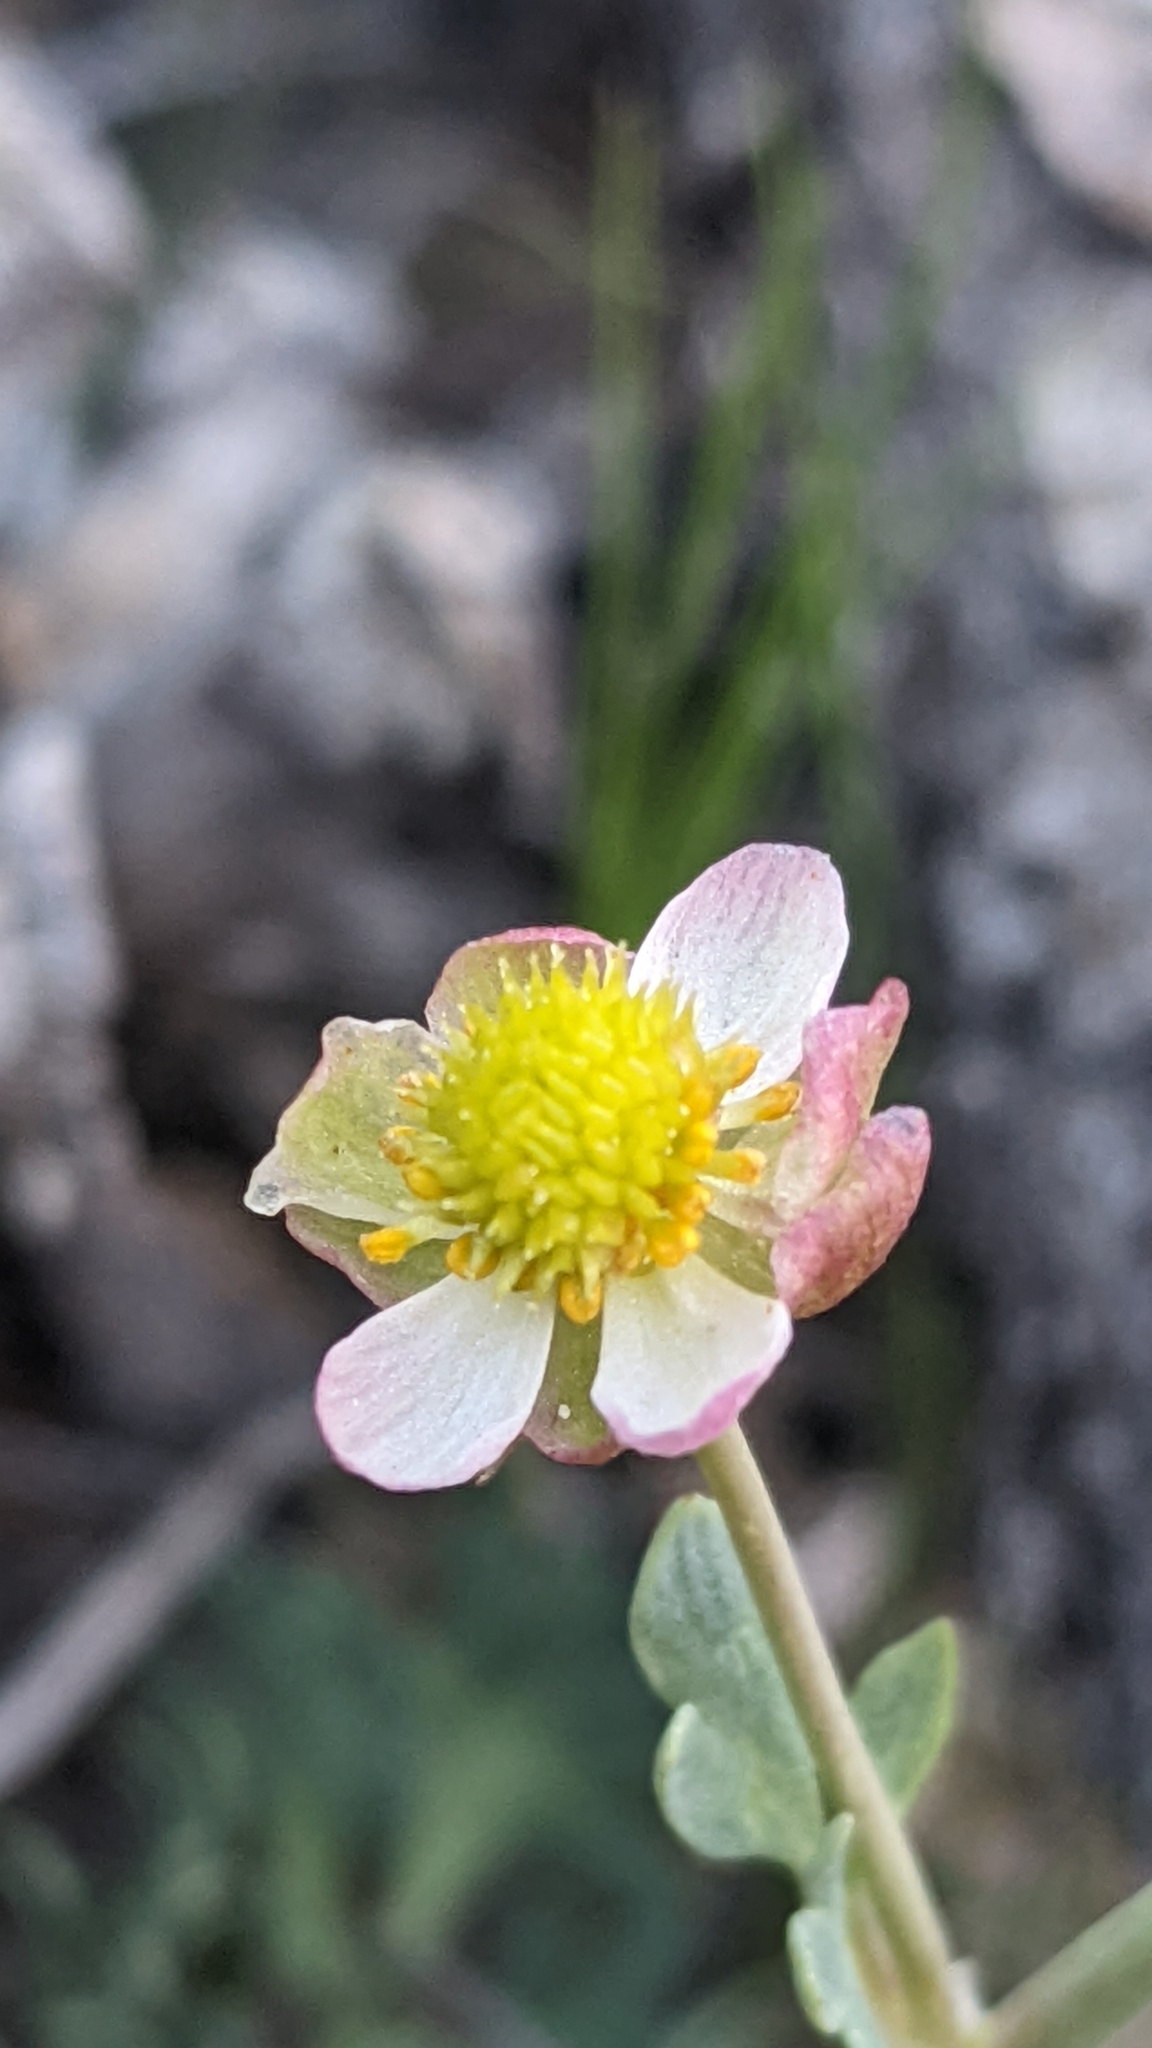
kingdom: Plantae
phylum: Tracheophyta
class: Magnoliopsida
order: Ranunculales
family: Ranunculaceae
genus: Beckwithia
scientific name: Beckwithia andersonii
